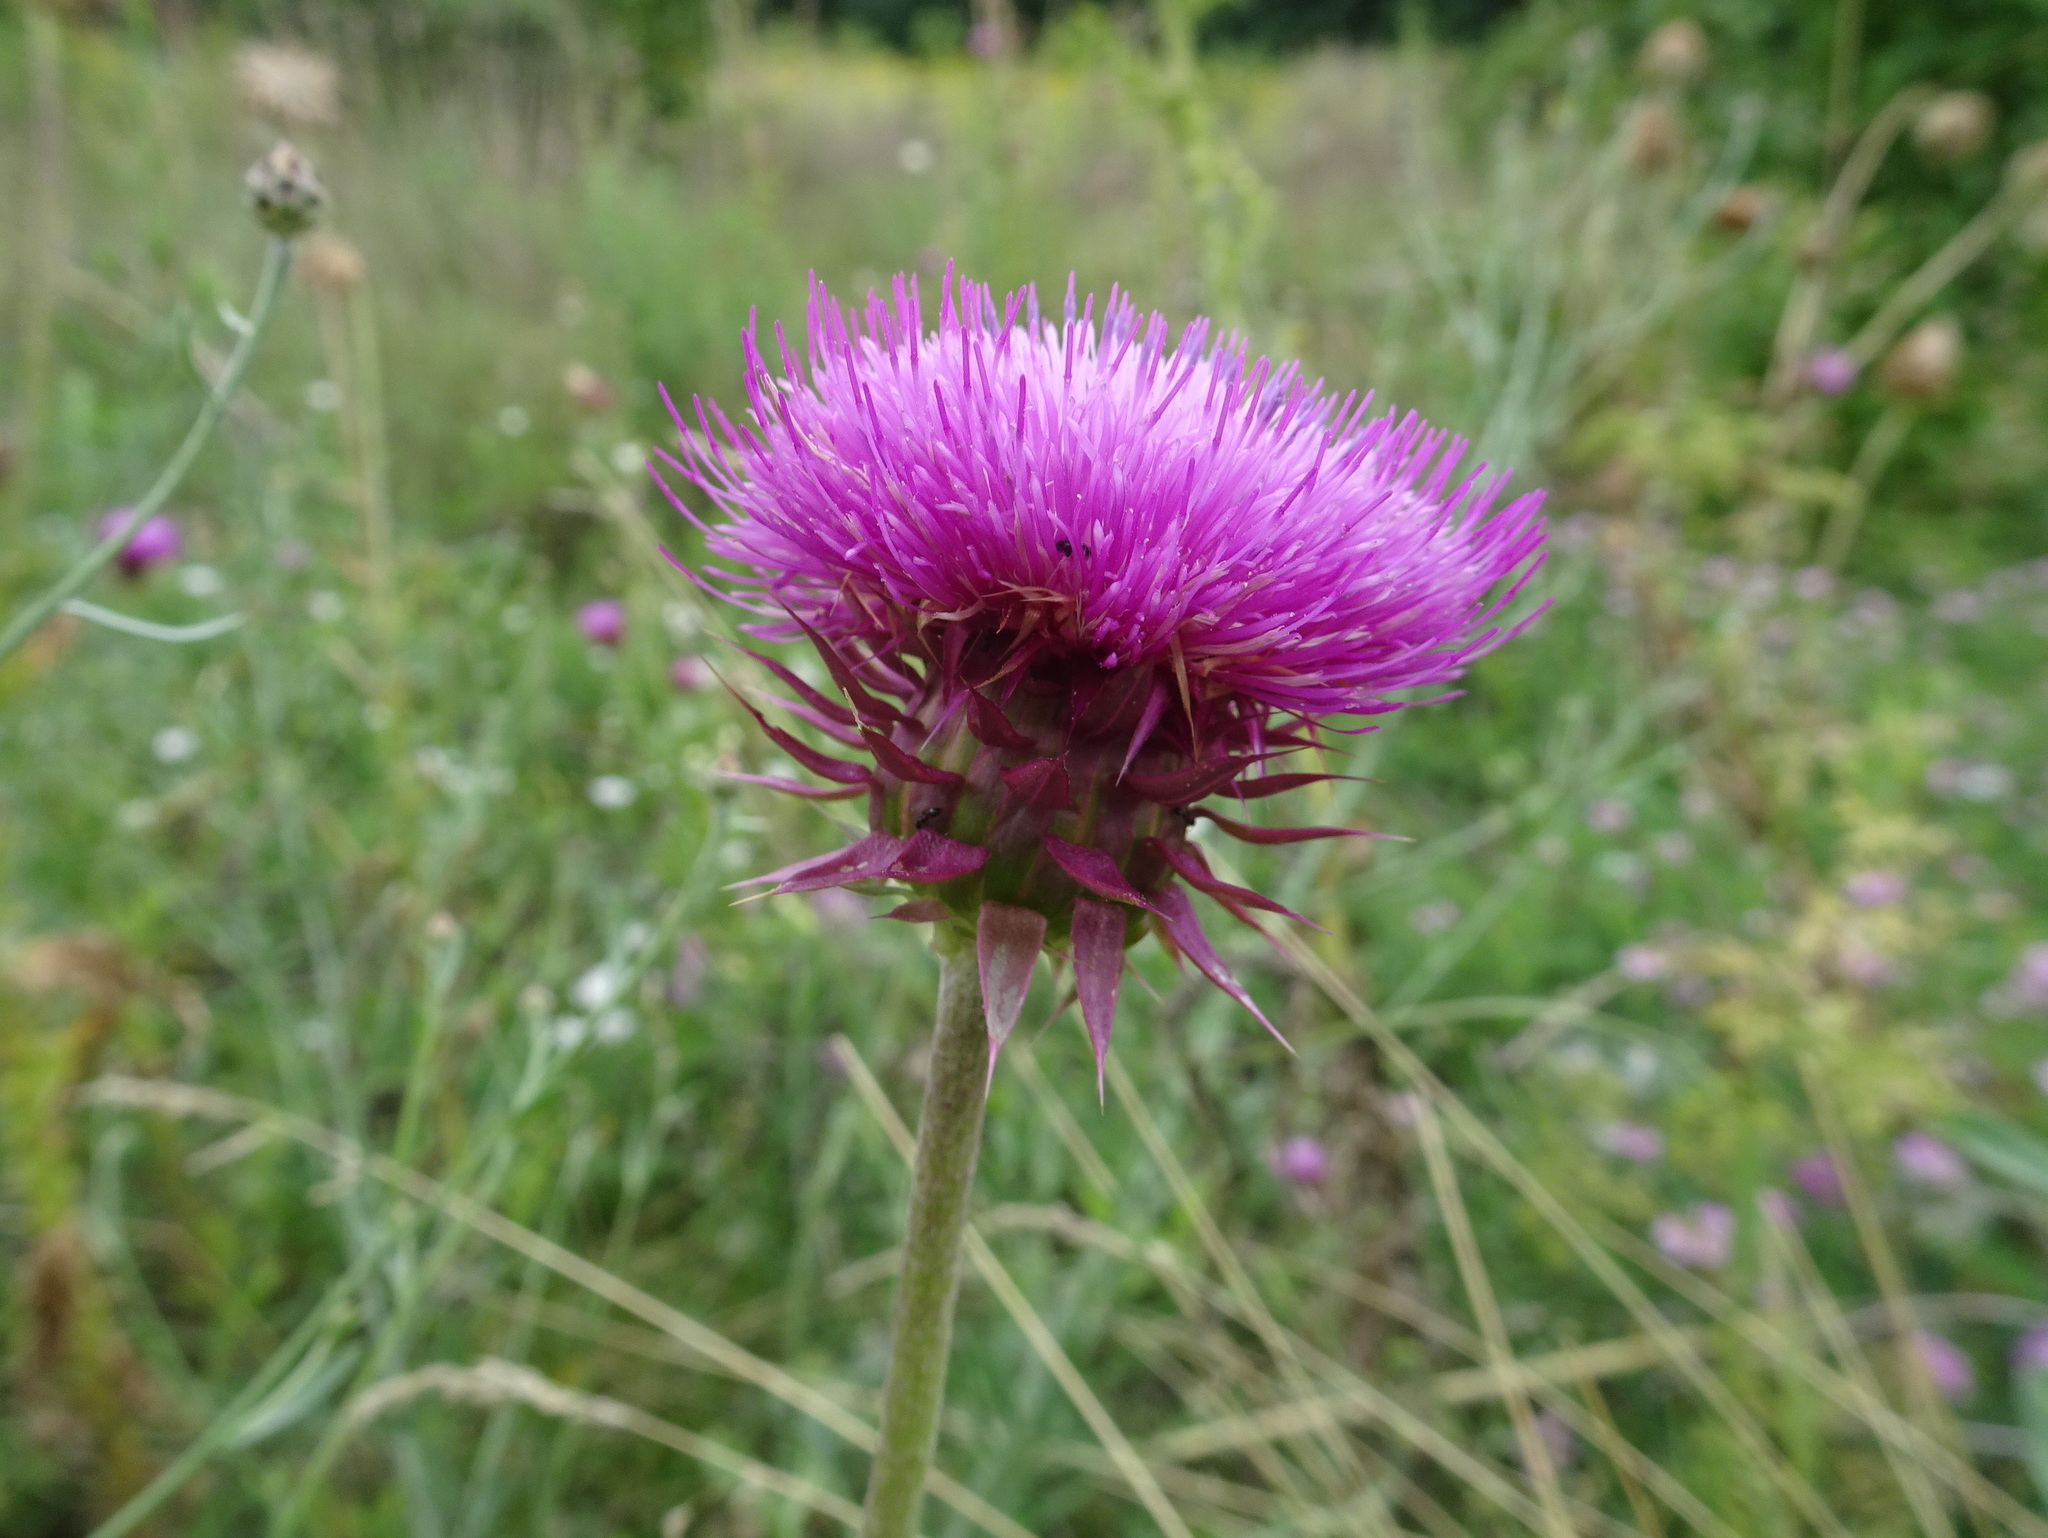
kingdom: Plantae
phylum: Tracheophyta
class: Magnoliopsida
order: Asterales
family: Asteraceae
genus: Carduus
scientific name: Carduus nutans
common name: Musk thistle
